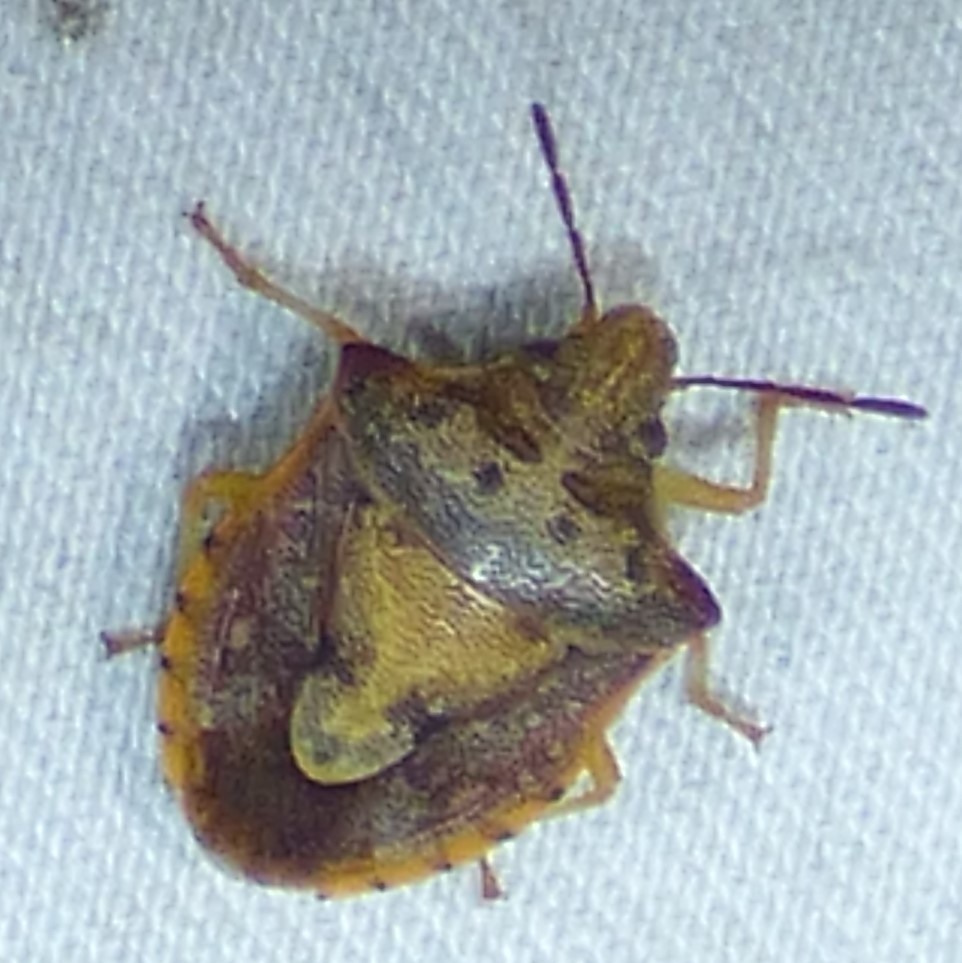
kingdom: Animalia
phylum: Arthropoda
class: Insecta
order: Hemiptera
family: Pentatomidae
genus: Dendrocoris
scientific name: Dendrocoris humeralis
